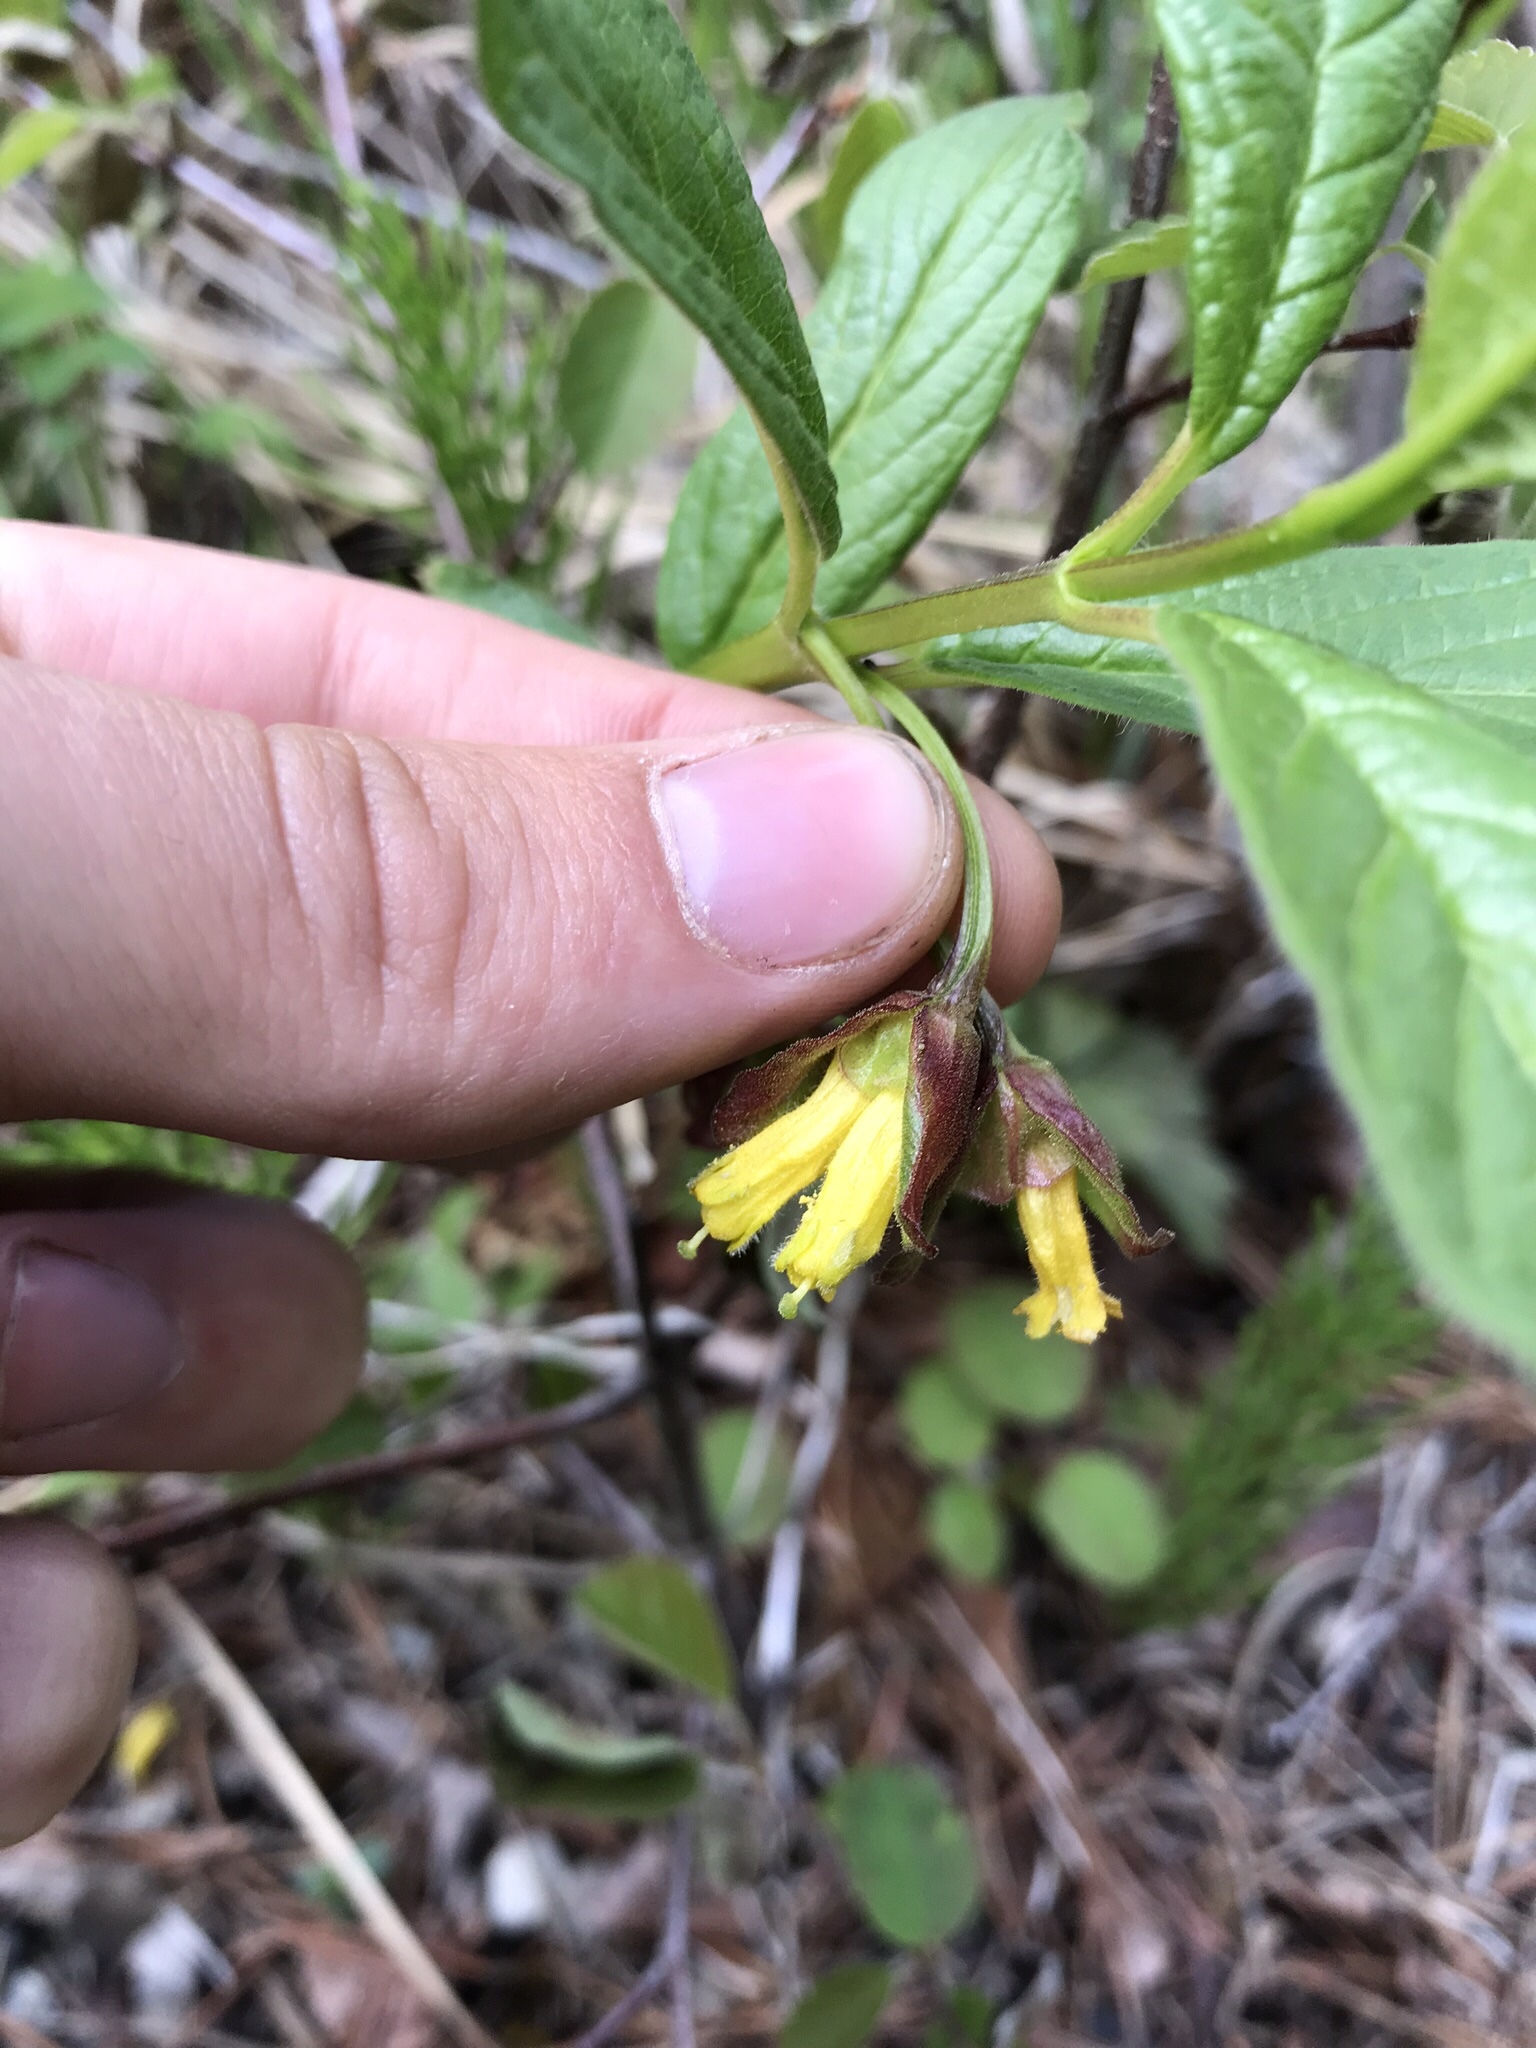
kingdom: Plantae
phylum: Tracheophyta
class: Magnoliopsida
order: Dipsacales
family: Caprifoliaceae
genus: Lonicera
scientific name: Lonicera involucrata
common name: Californian honeysuckle
